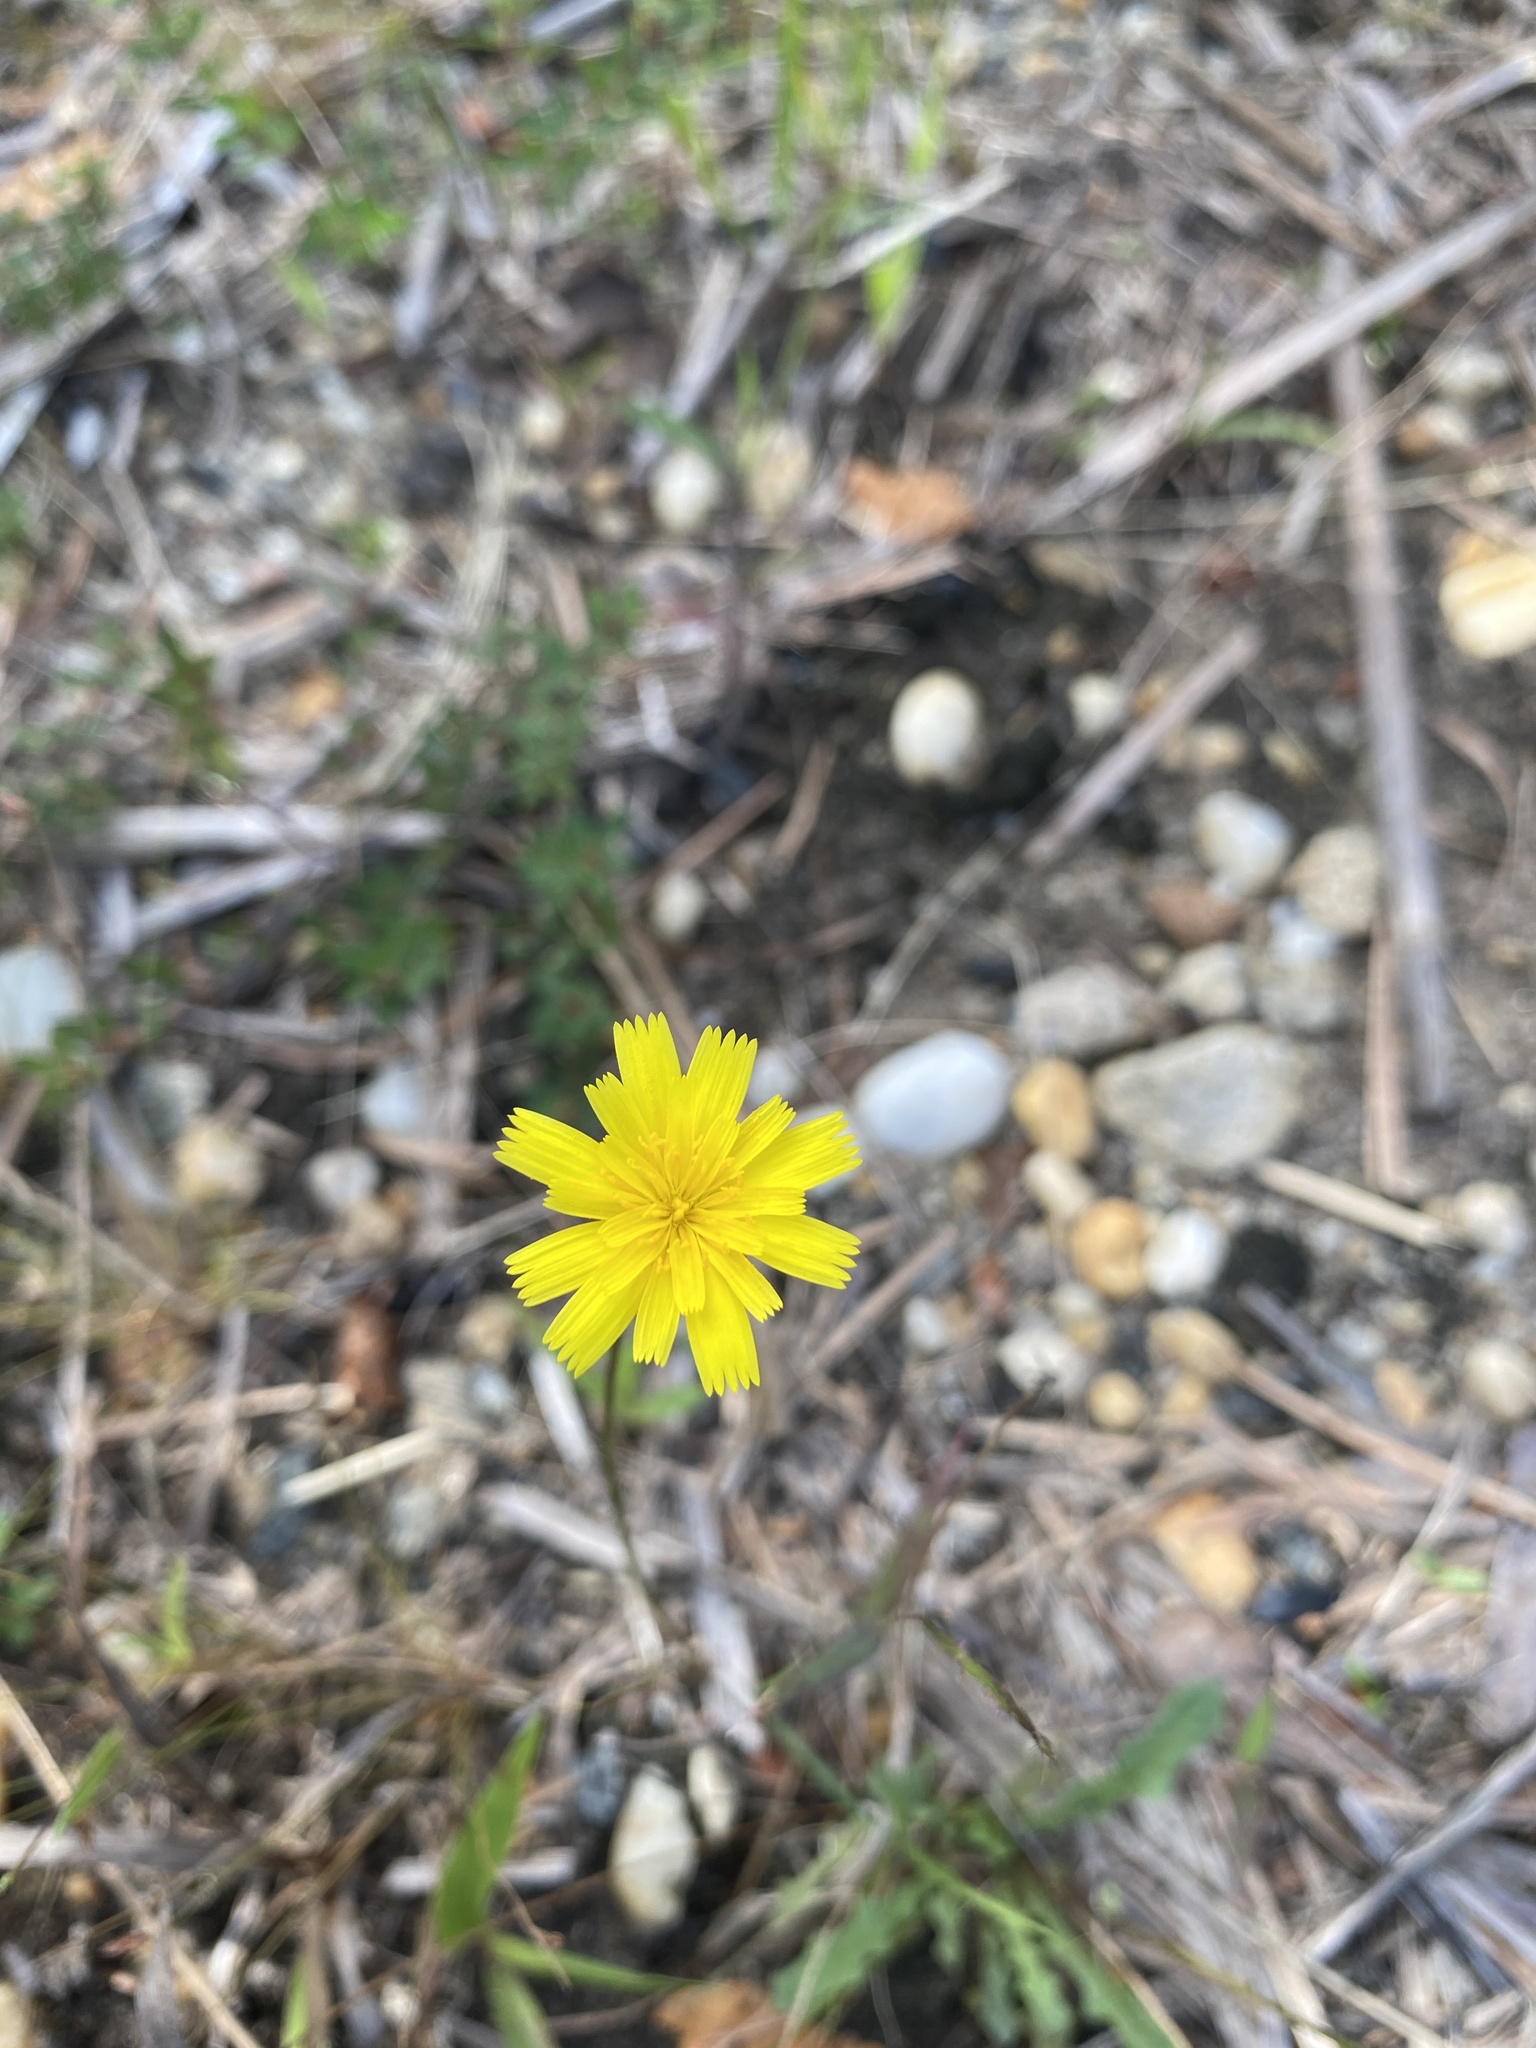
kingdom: Plantae
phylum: Tracheophyta
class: Magnoliopsida
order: Asterales
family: Asteraceae
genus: Hypochaeris
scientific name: Hypochaeris radicata
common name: Flatweed
